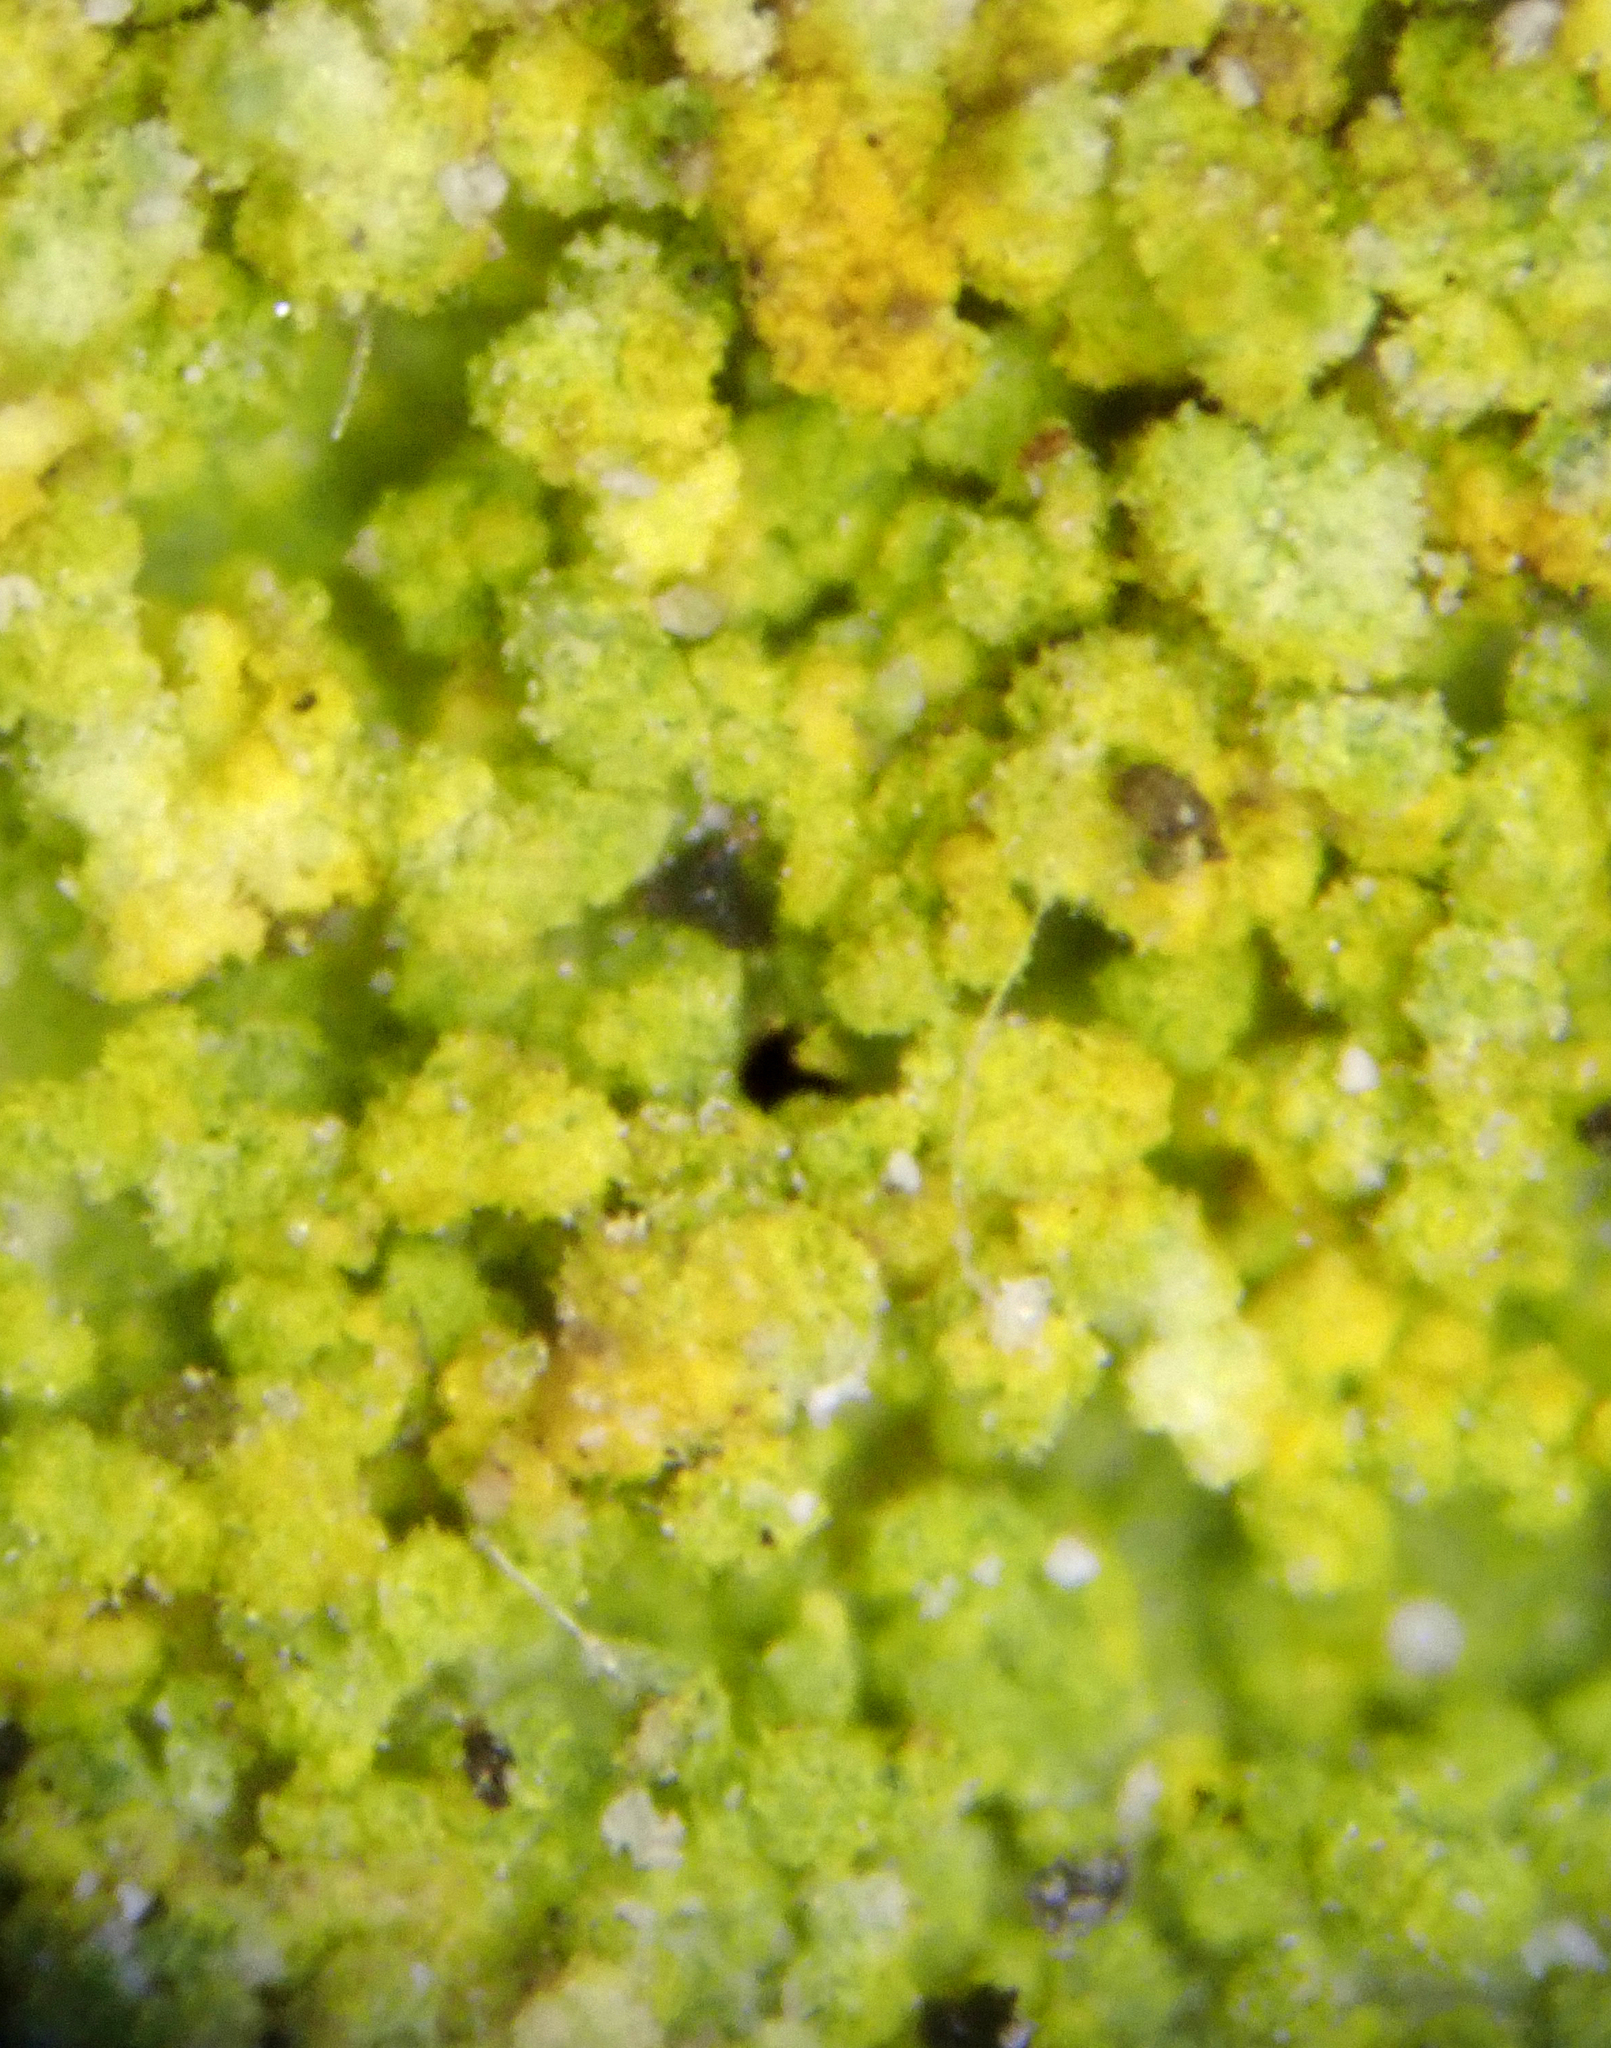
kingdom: Fungi
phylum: Ascomycota
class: Arthoniomycetes
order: Arthoniales
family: Chrysotrichaceae
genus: Chrysothrix
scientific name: Chrysothrix candelaris
